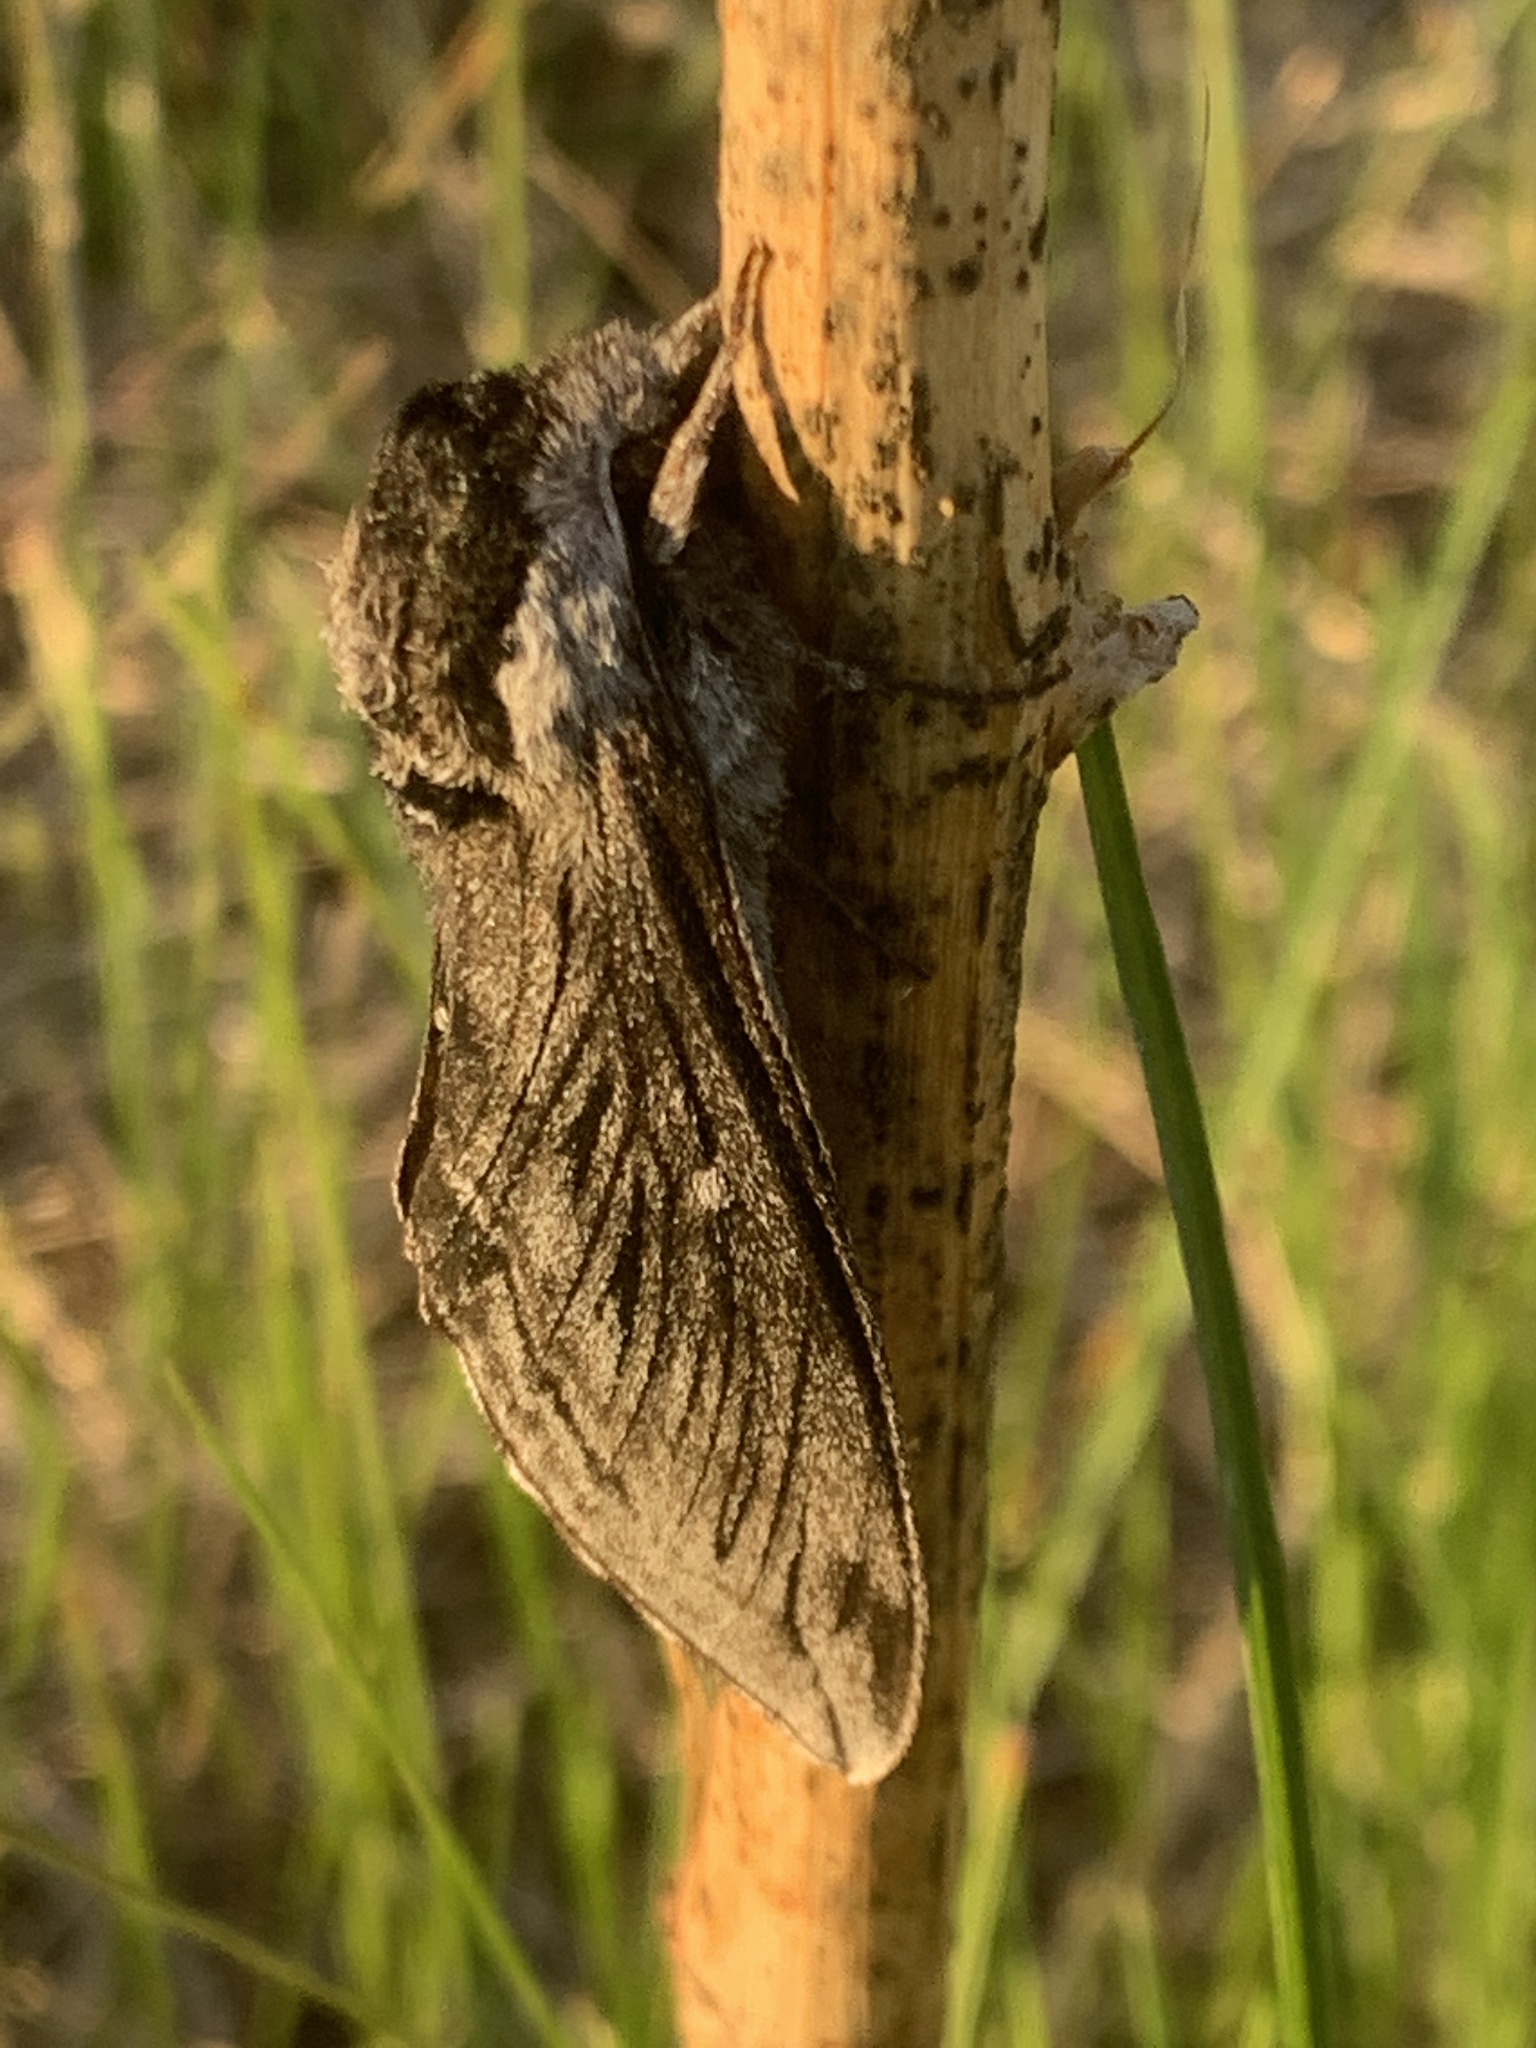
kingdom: Animalia
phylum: Arthropoda
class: Insecta
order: Lepidoptera
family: Sphingidae
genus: Sphinx
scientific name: Sphinx poecila
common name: Northern apple sphinx
